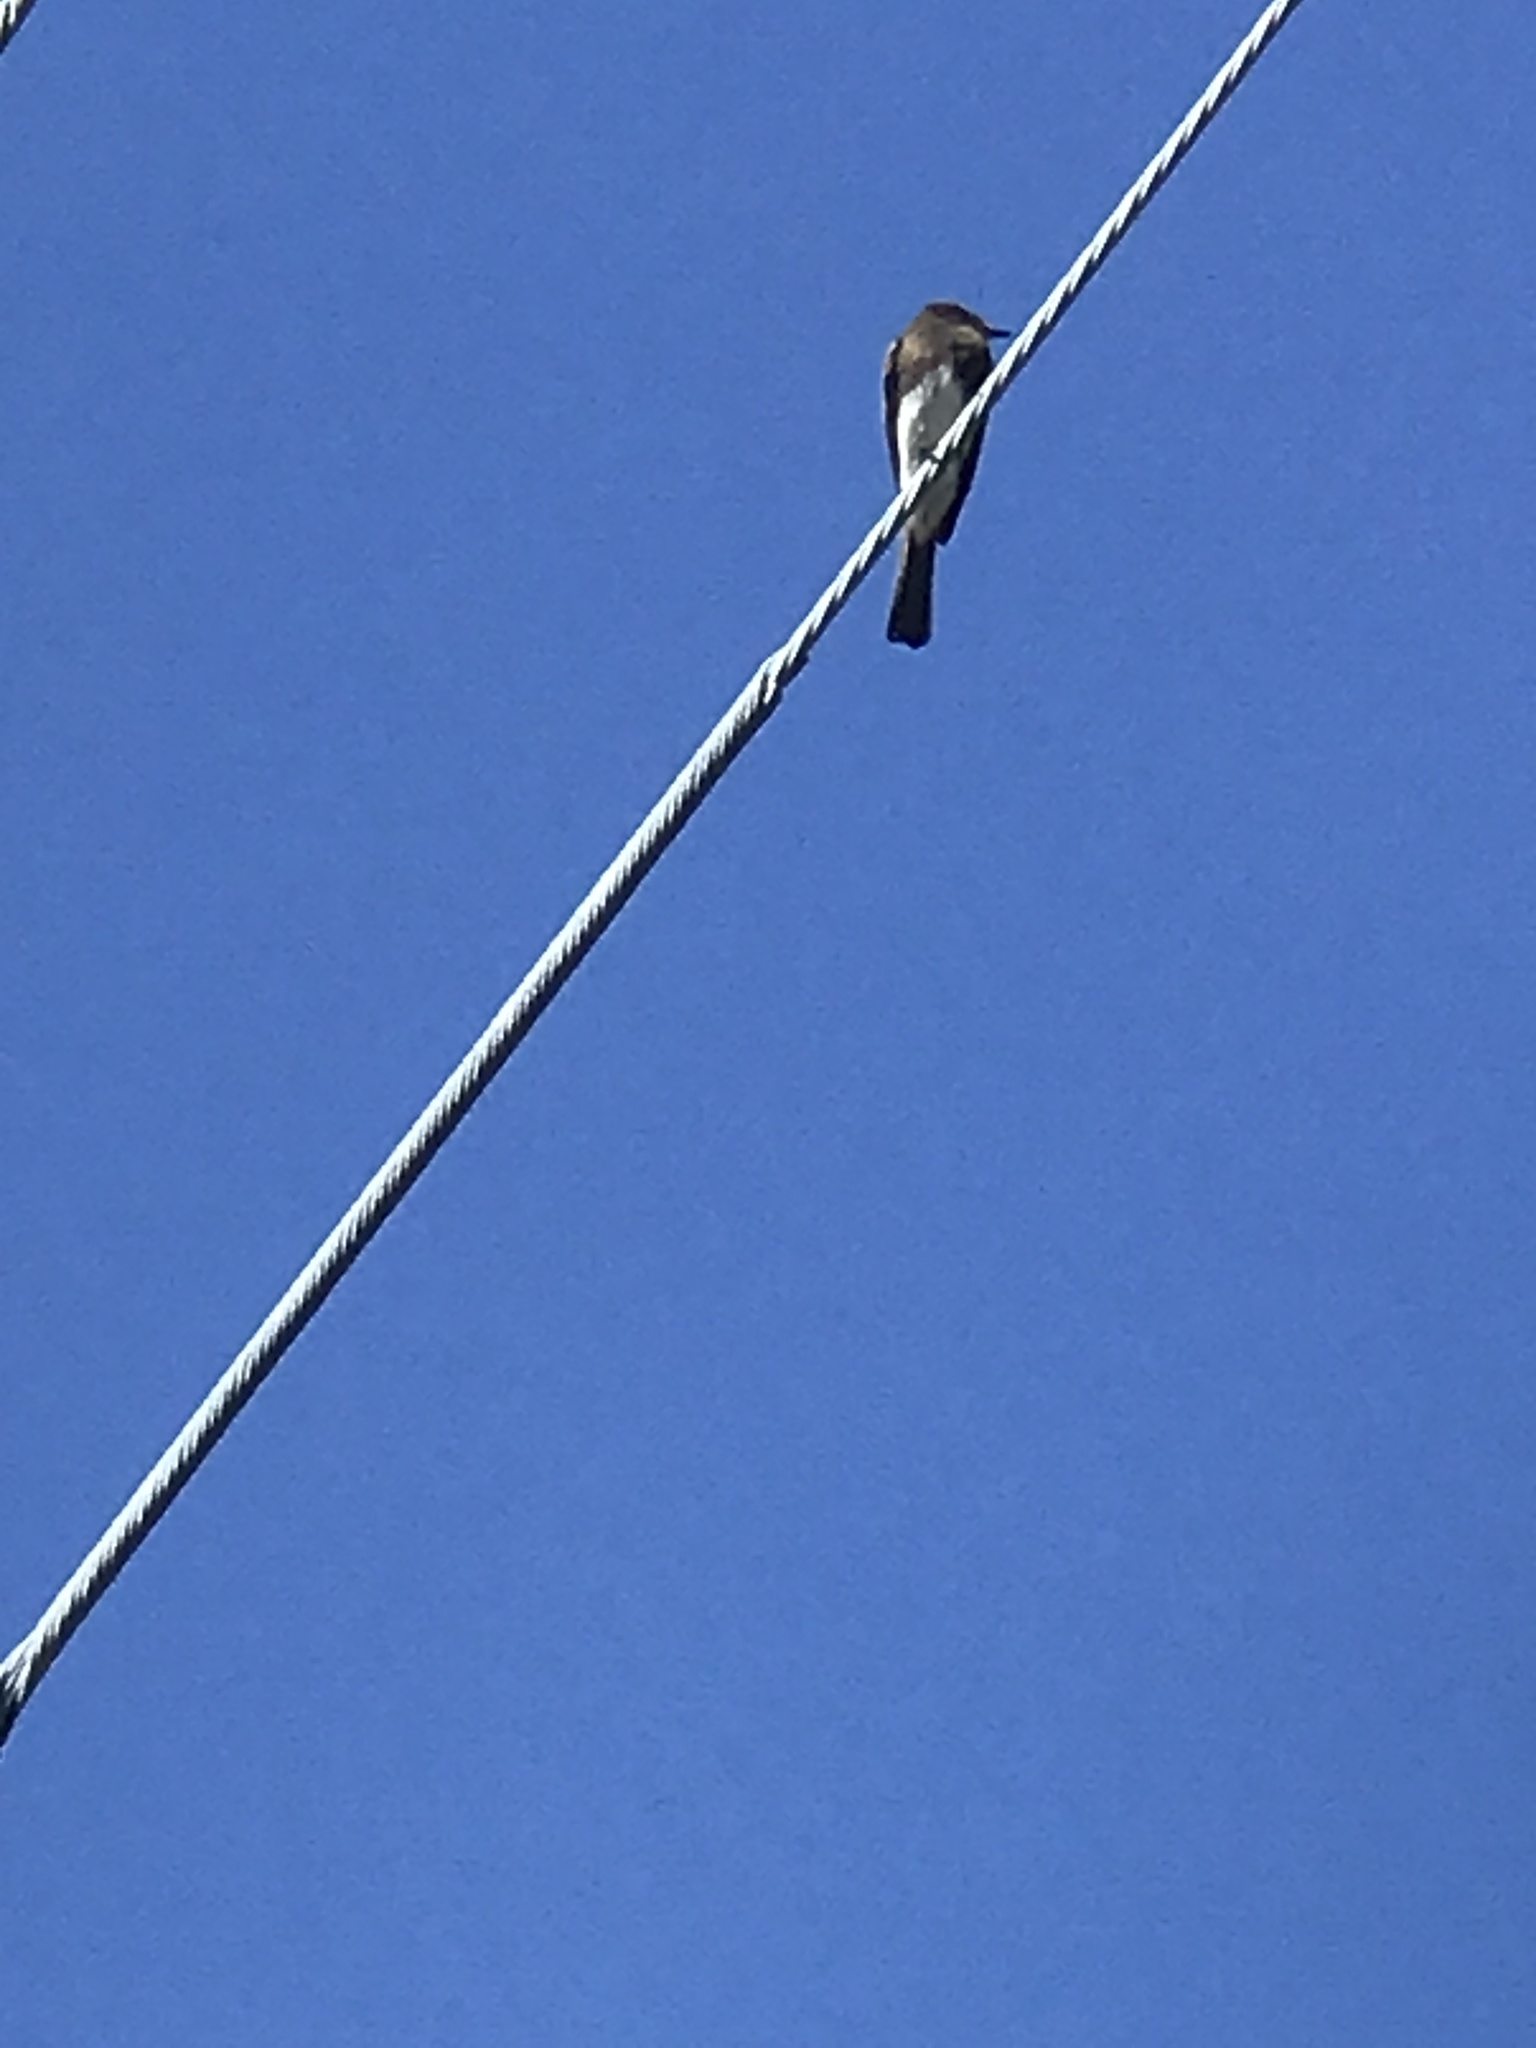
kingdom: Animalia
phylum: Chordata
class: Aves
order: Passeriformes
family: Tyrannidae
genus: Sayornis
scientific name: Sayornis nigricans
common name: Black phoebe
